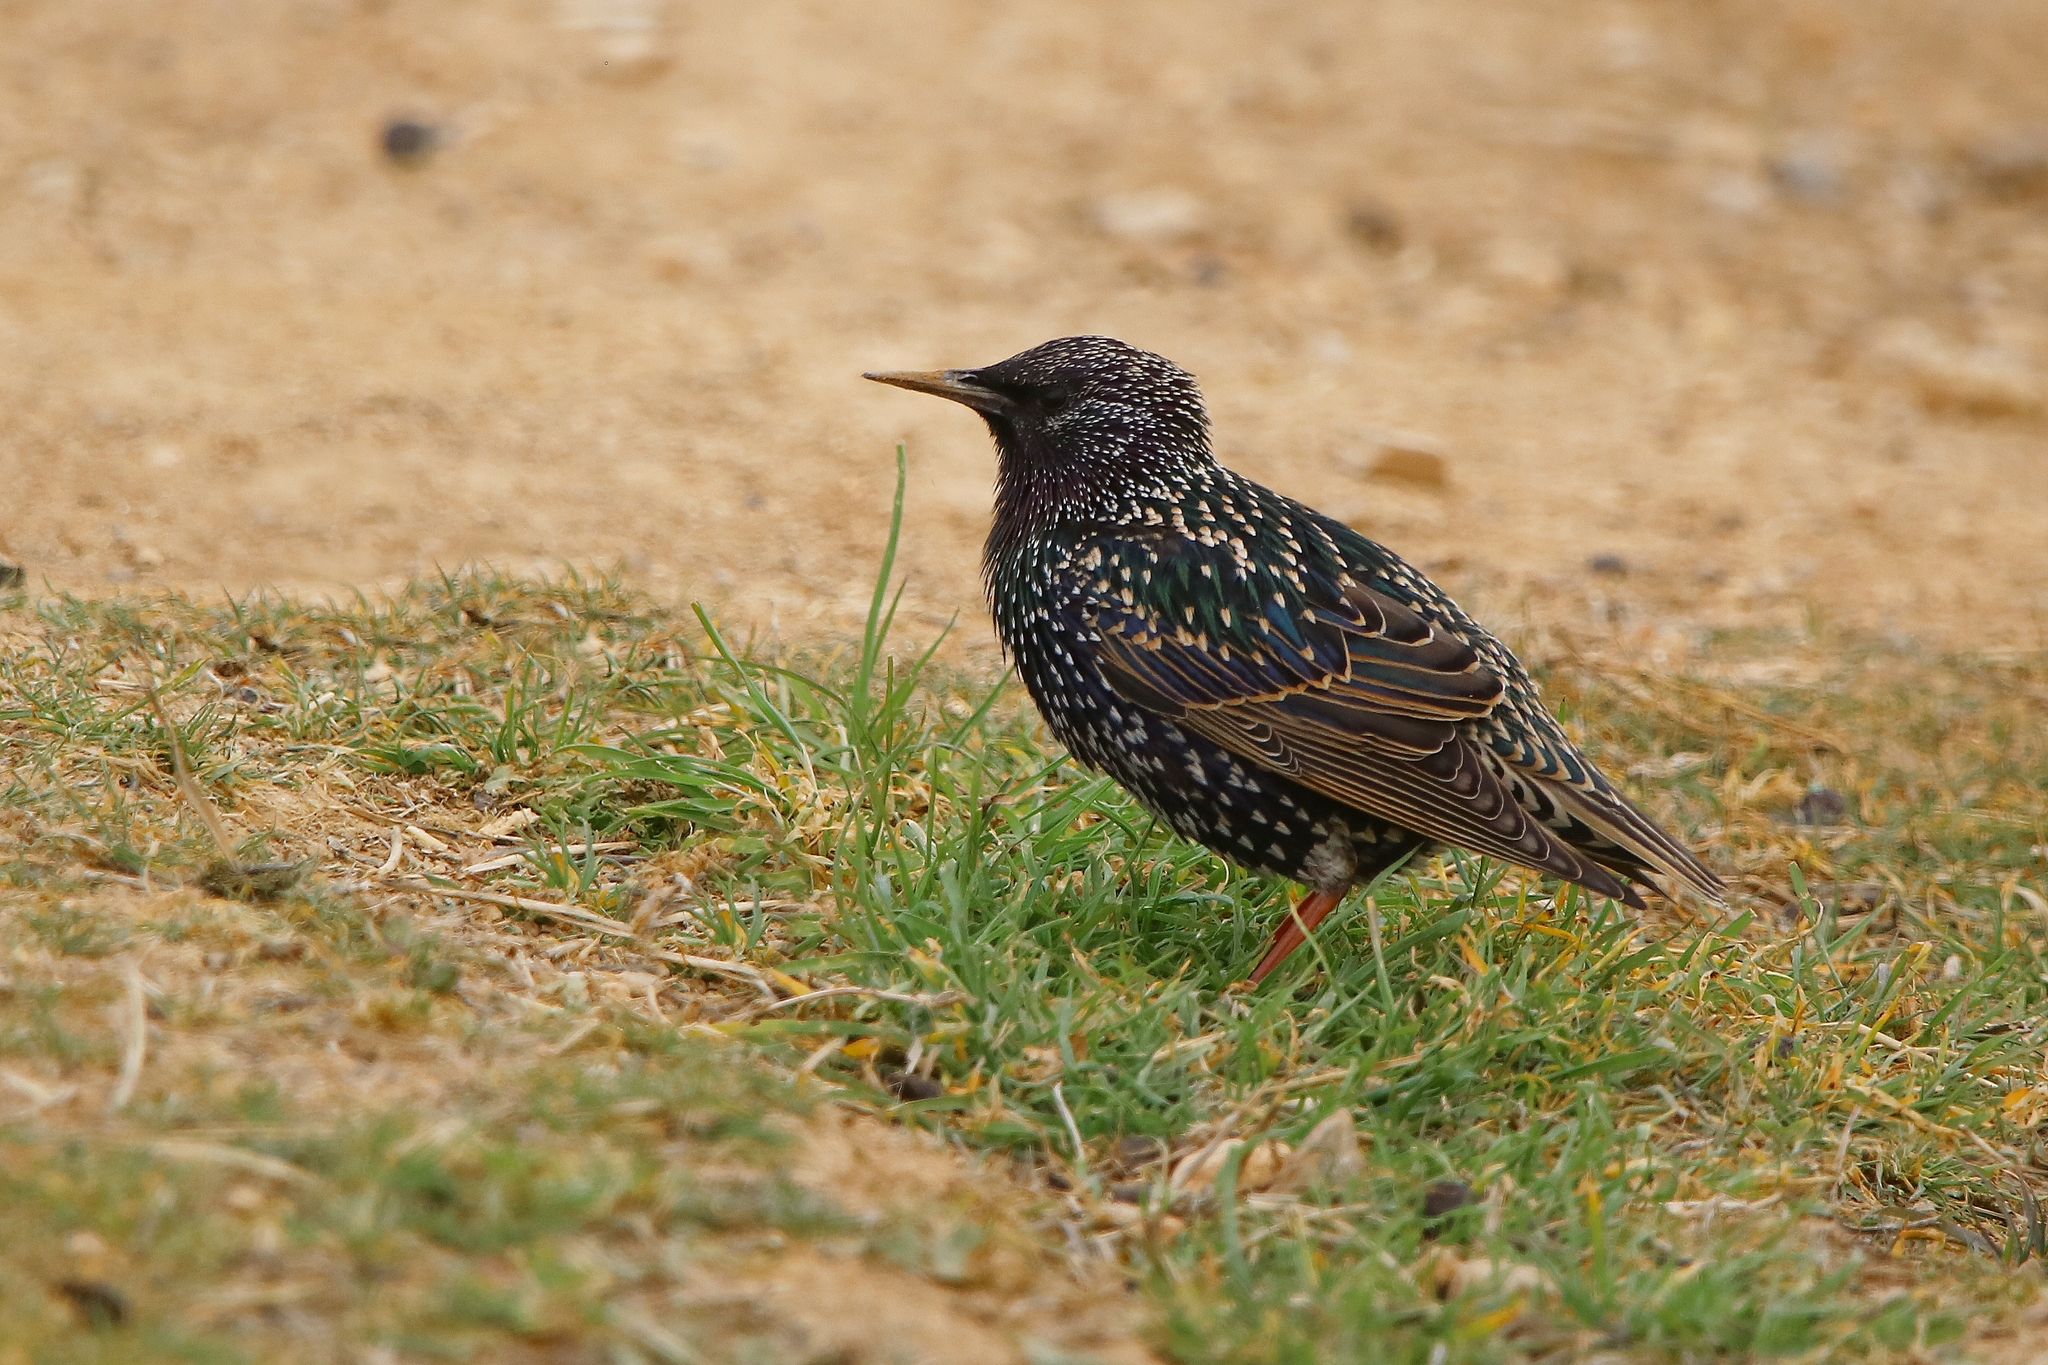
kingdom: Animalia
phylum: Chordata
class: Aves
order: Passeriformes
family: Sturnidae
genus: Sturnus
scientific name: Sturnus vulgaris
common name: Common starling
